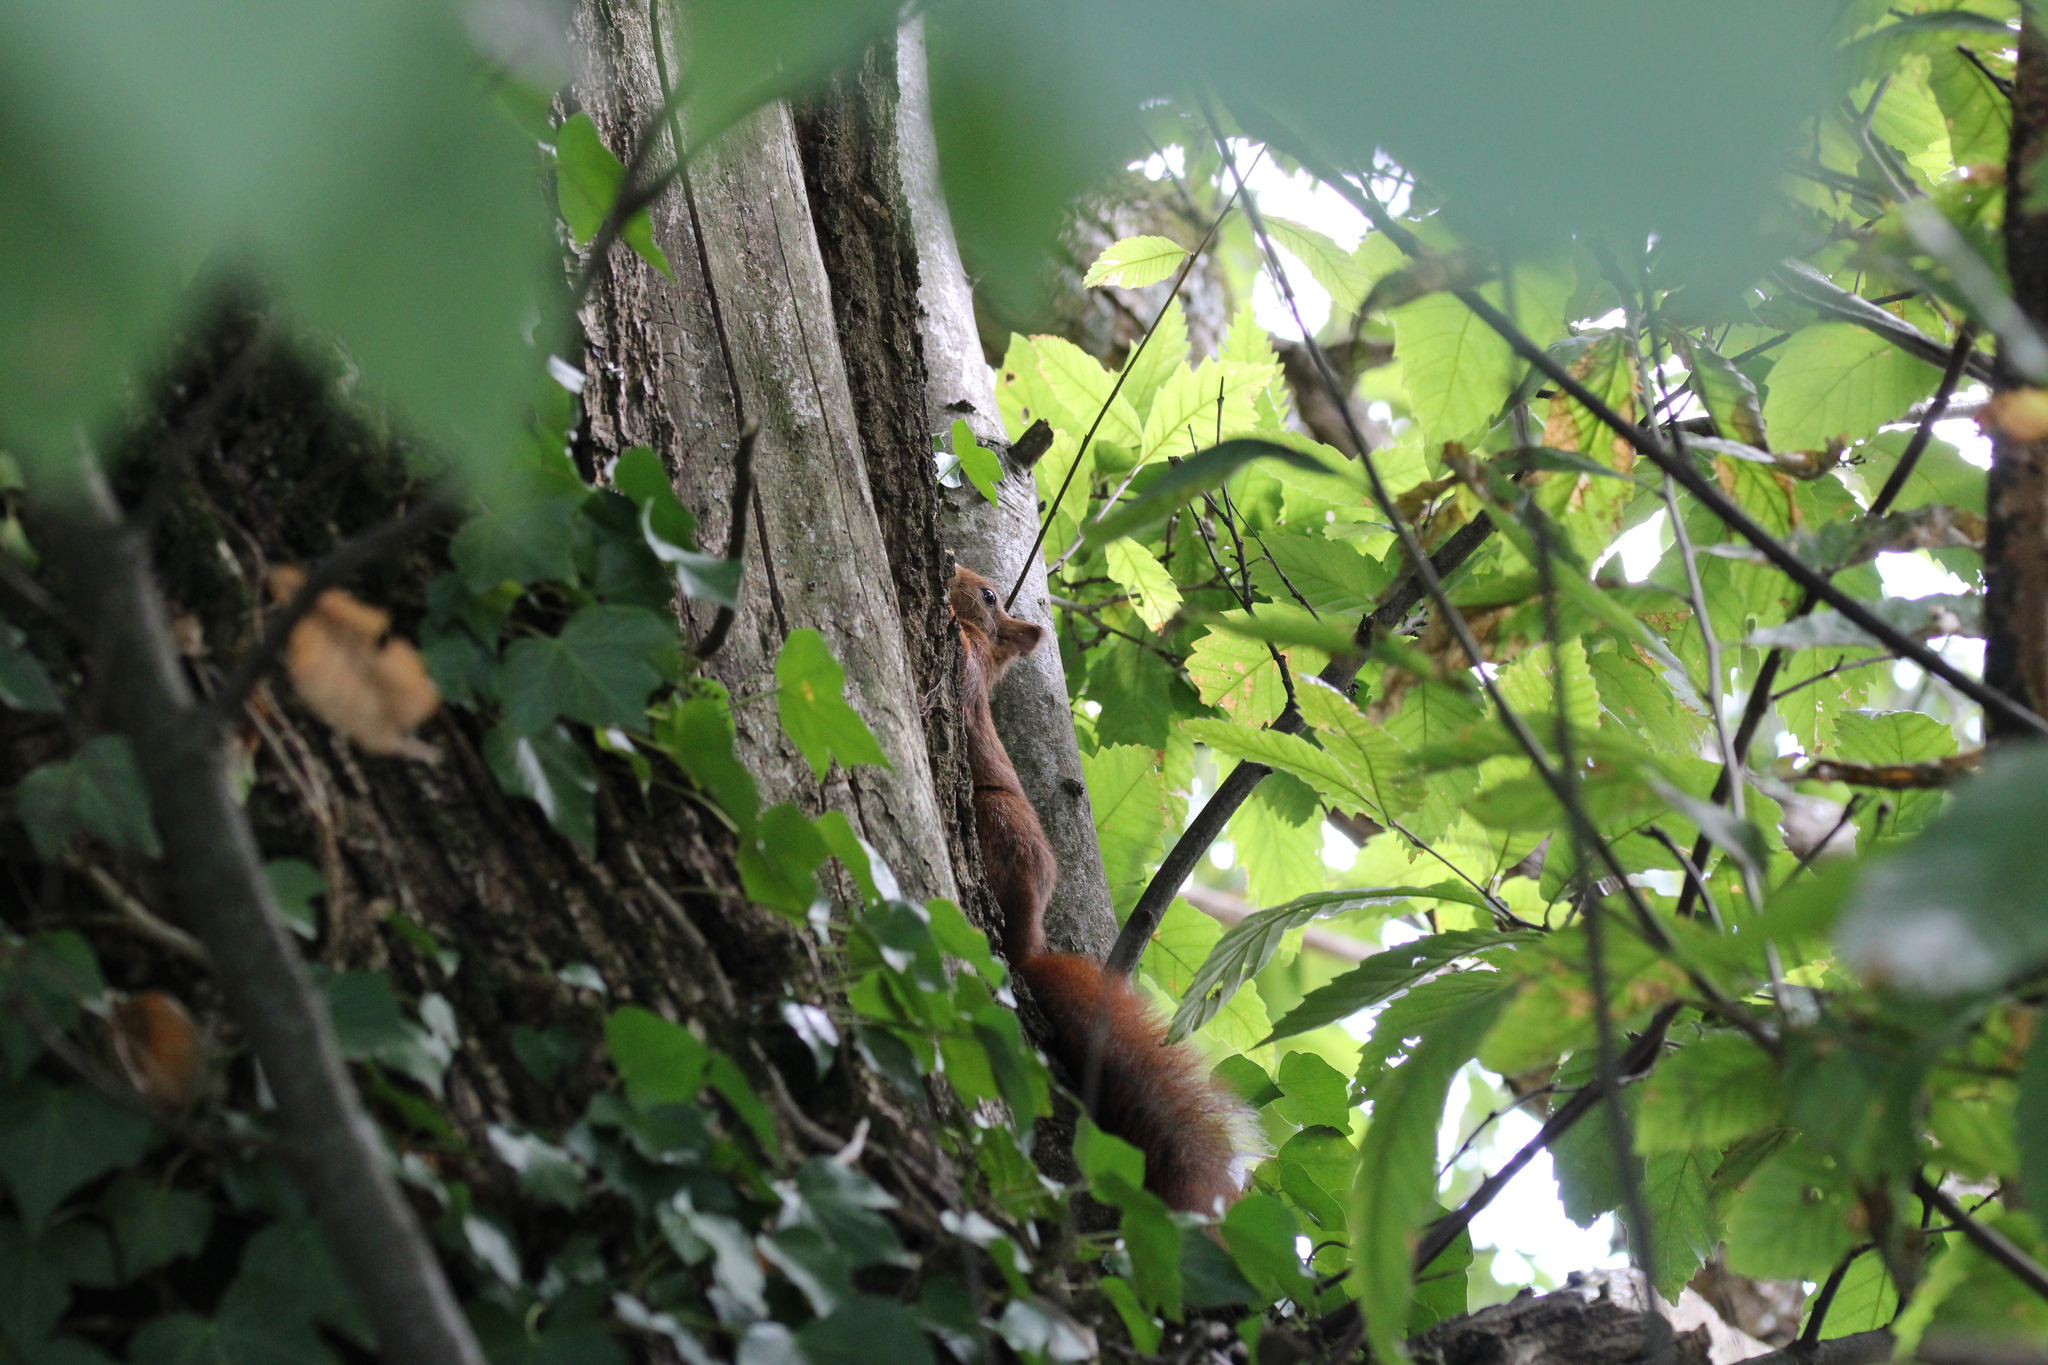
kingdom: Animalia
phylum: Chordata
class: Mammalia
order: Rodentia
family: Sciuridae
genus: Sciurus
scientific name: Sciurus vulgaris
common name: Eurasian red squirrel
